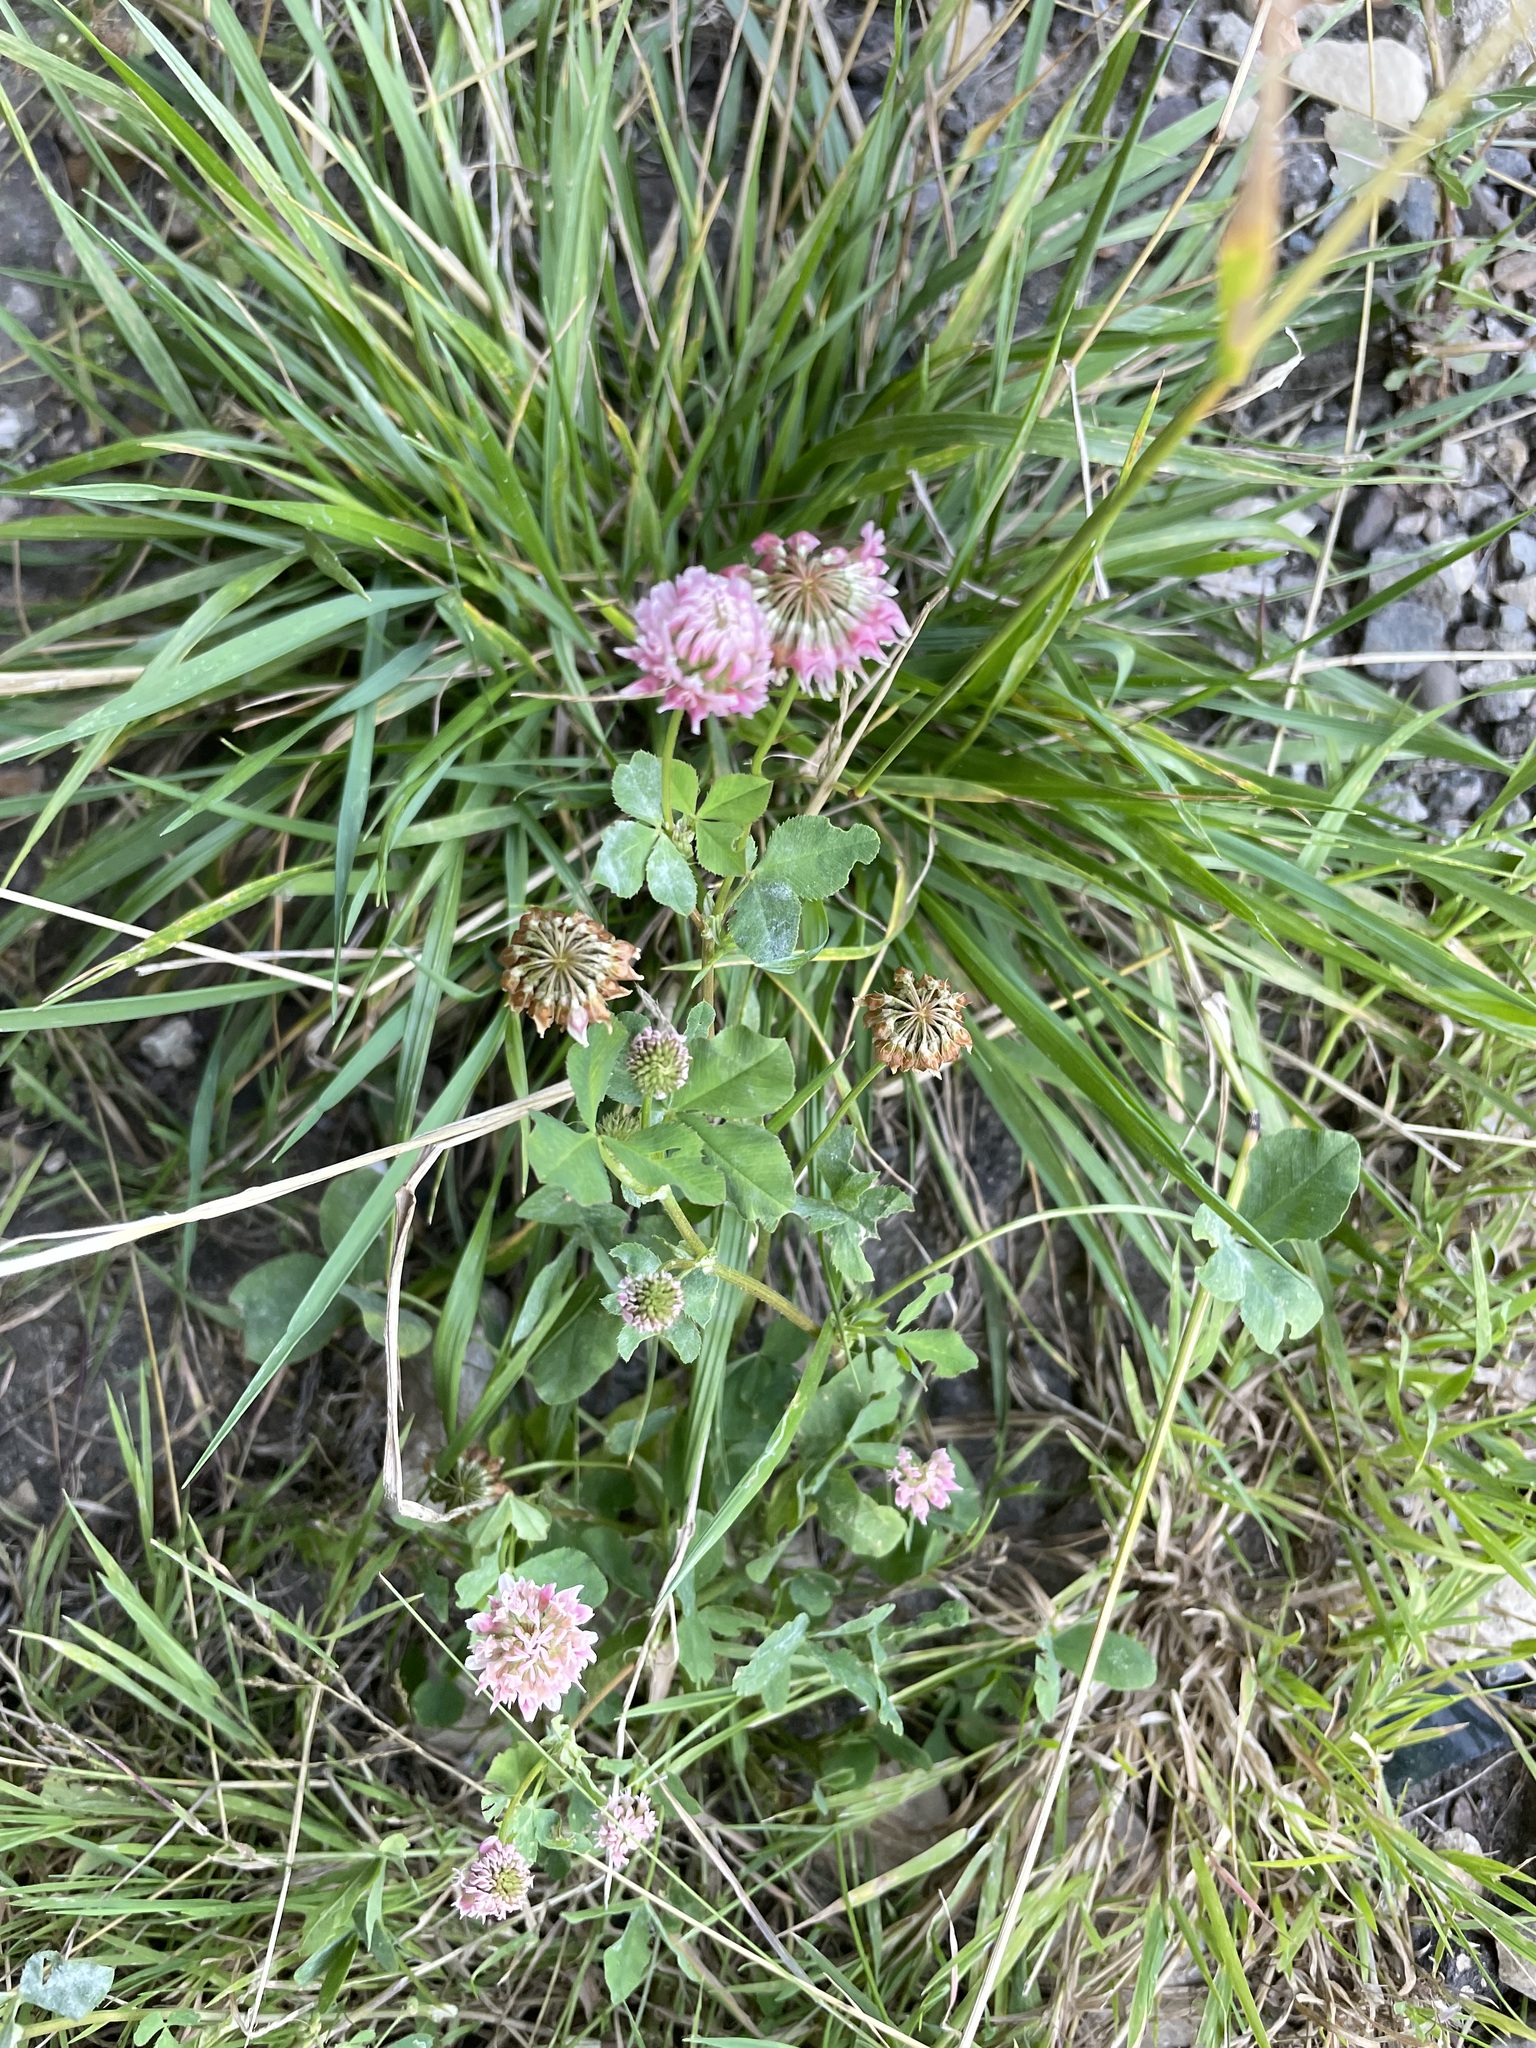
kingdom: Plantae
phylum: Tracheophyta
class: Magnoliopsida
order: Fabales
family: Fabaceae
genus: Trifolium
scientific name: Trifolium hybridum
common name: Alsike clover
